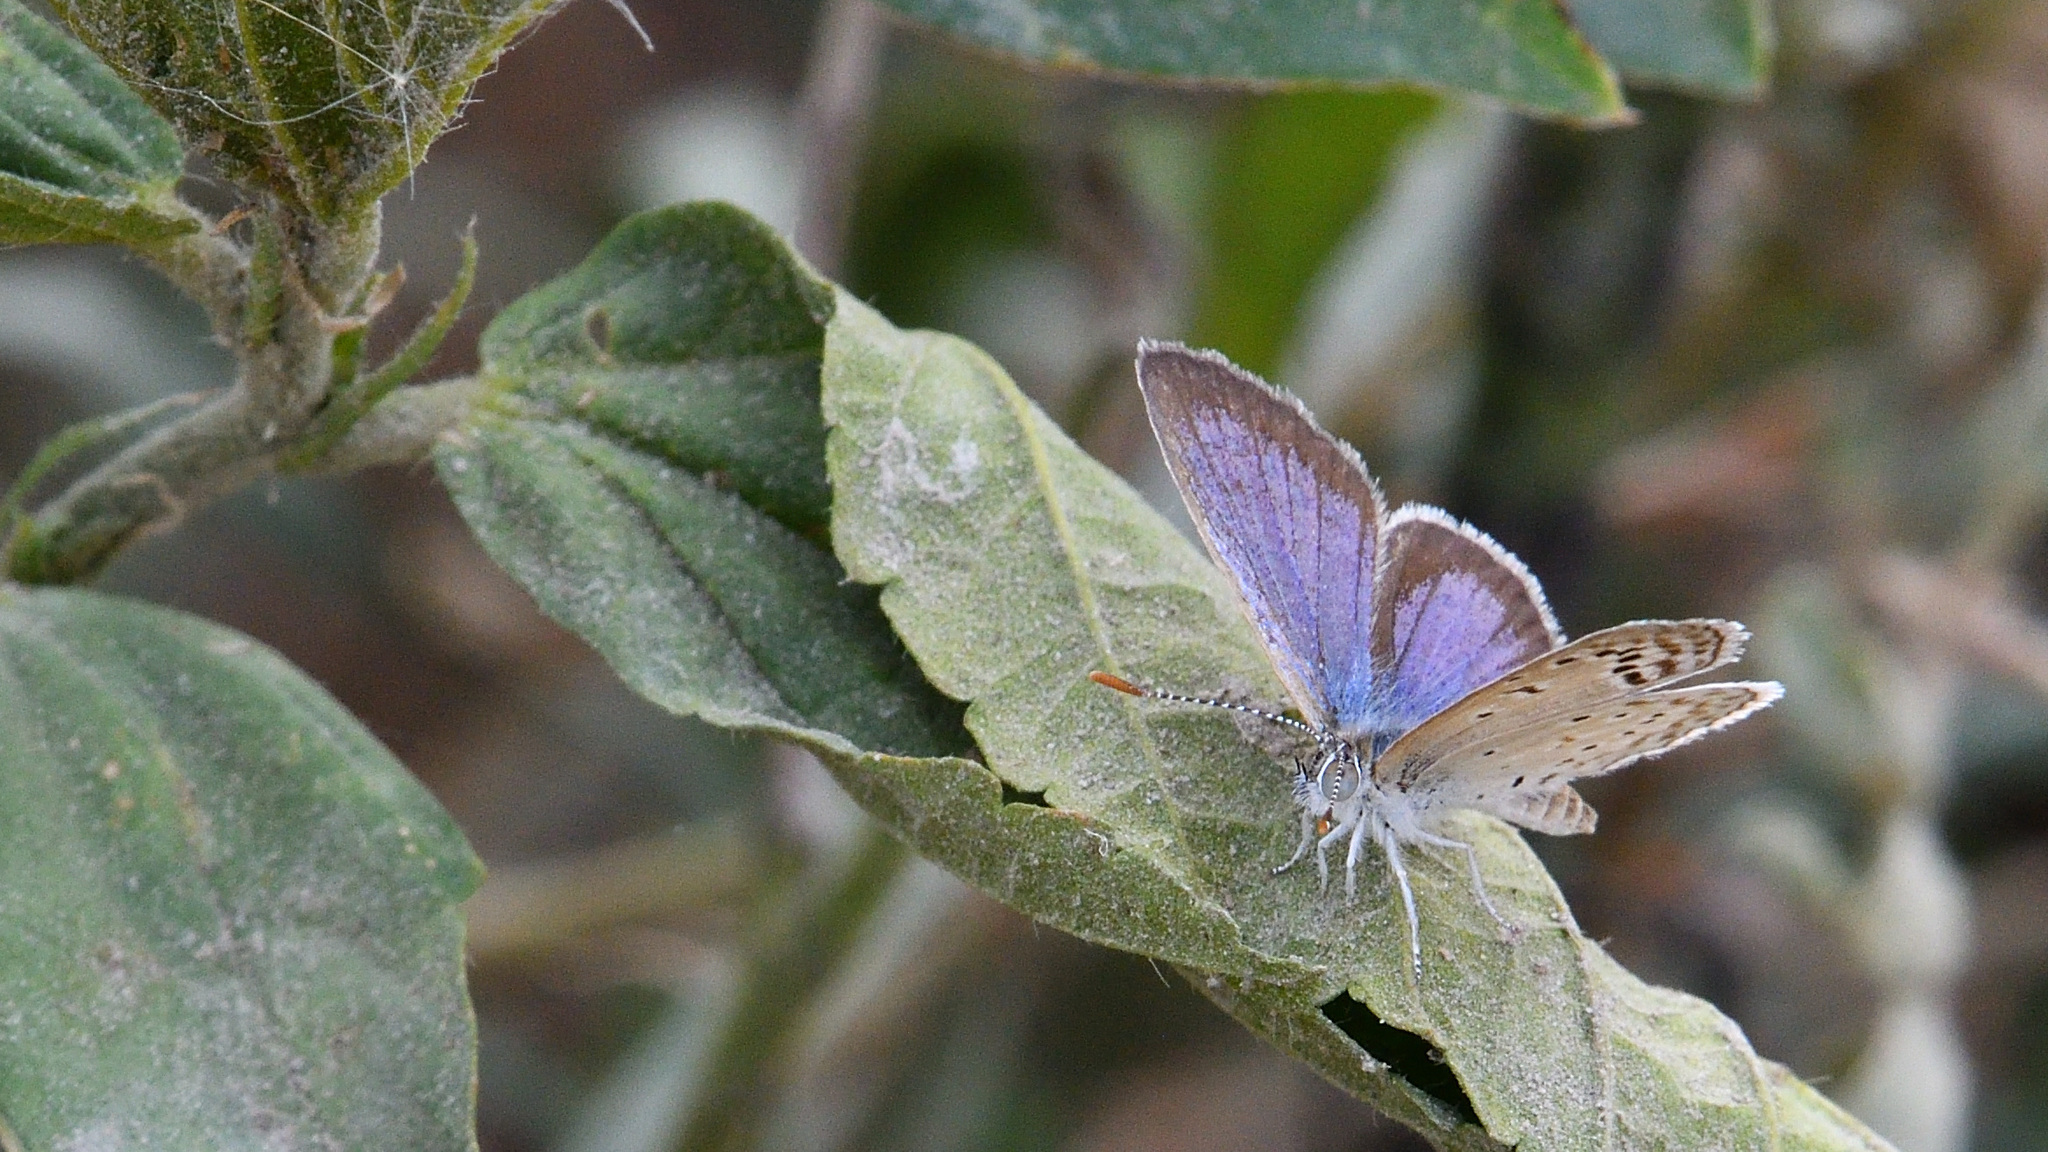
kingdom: Animalia
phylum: Arthropoda
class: Insecta
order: Lepidoptera
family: Lycaenidae
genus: Zizeeria
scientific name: Zizeeria karsandra
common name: Dark grass blue
